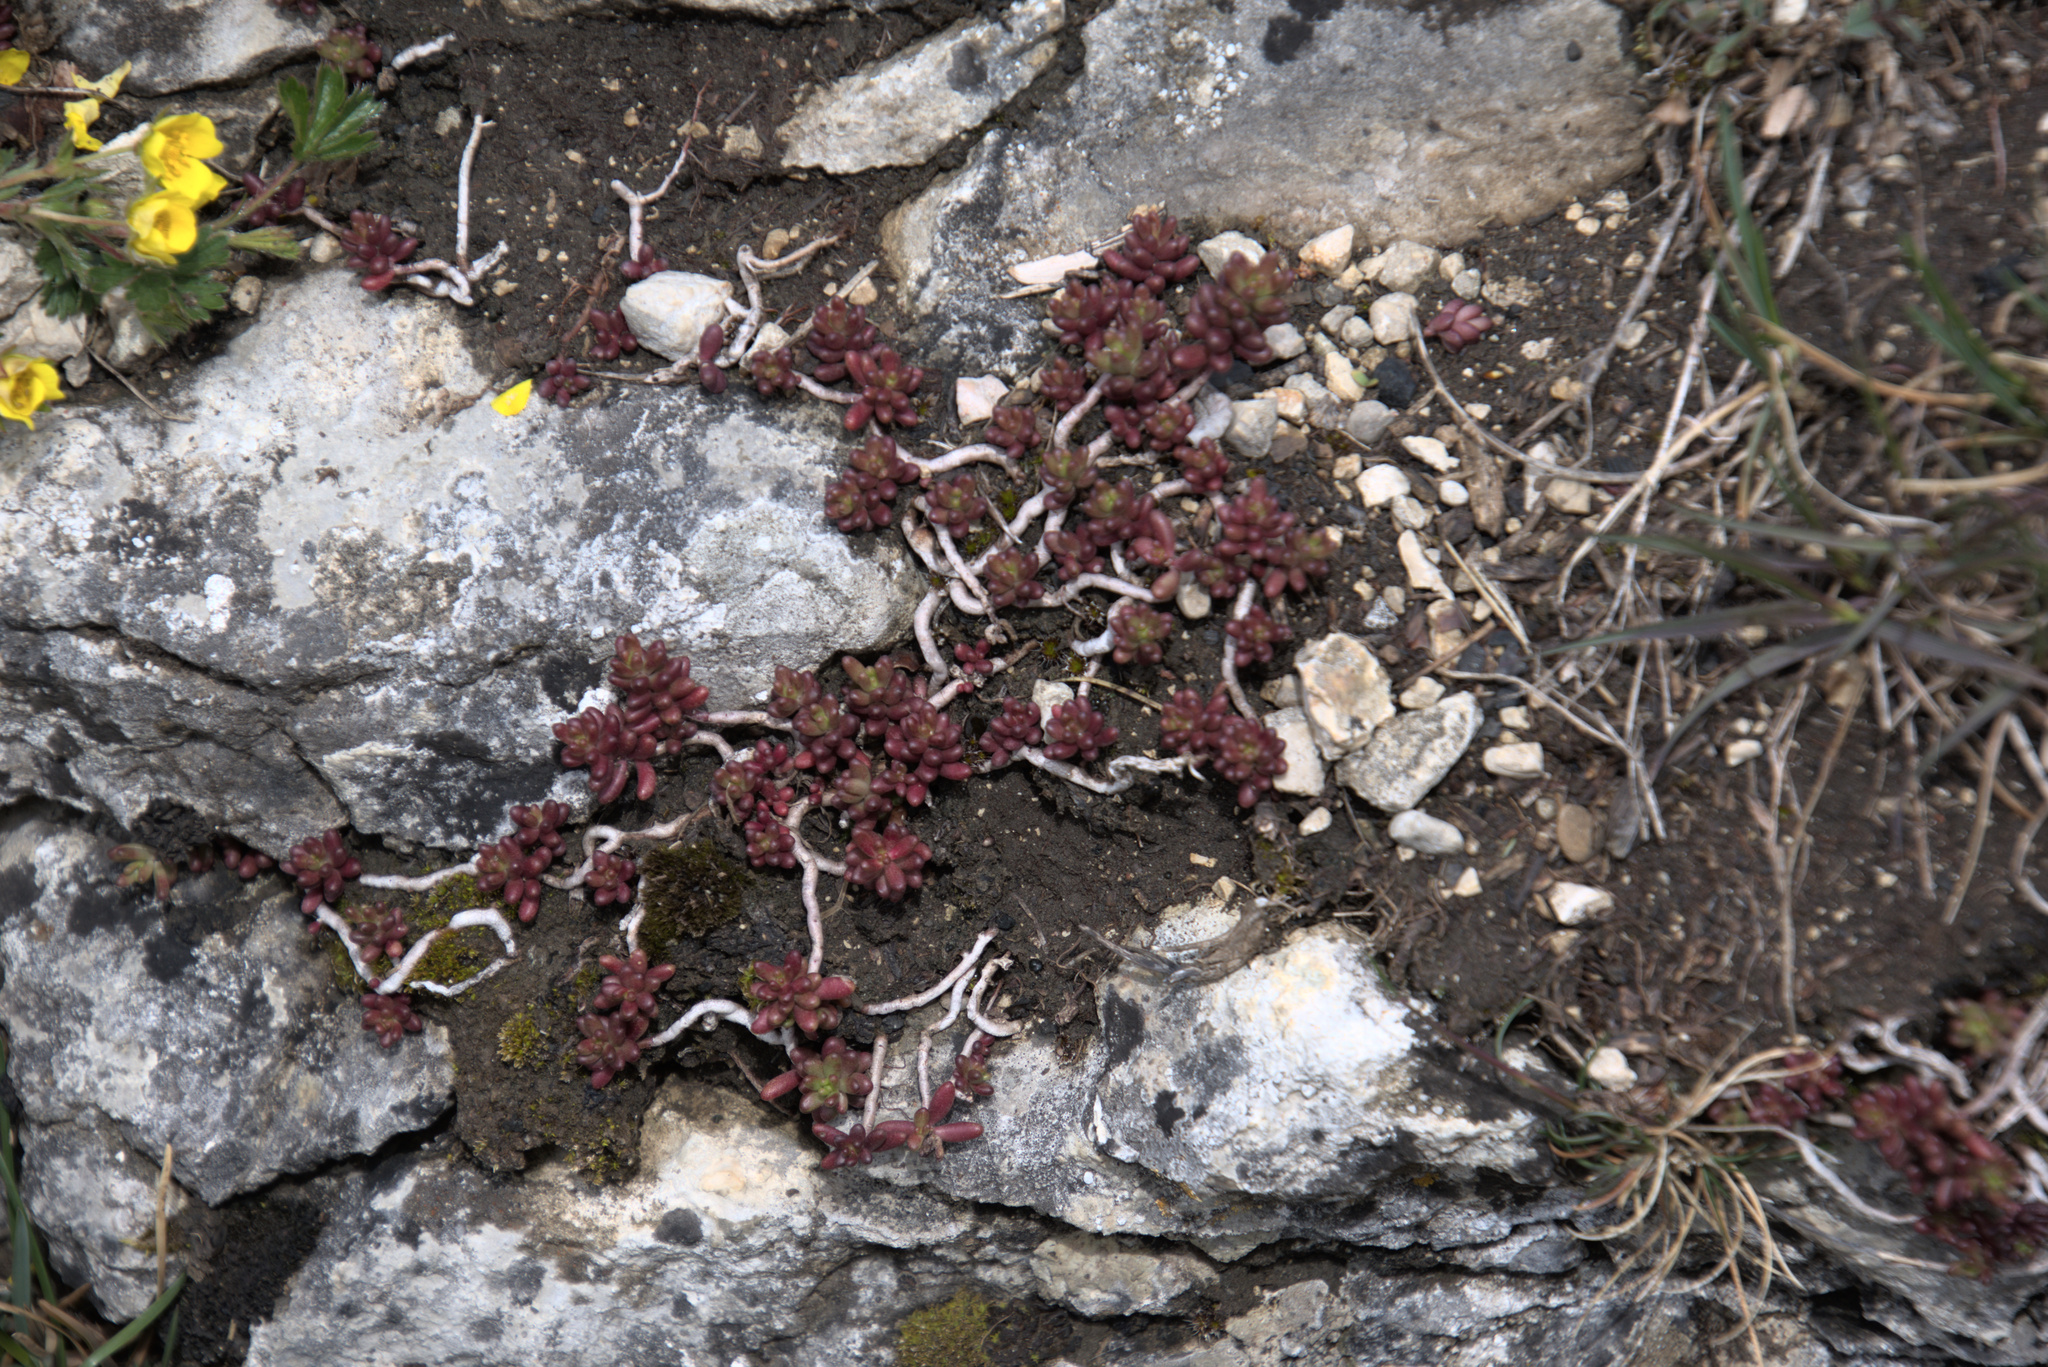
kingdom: Plantae
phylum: Tracheophyta
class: Magnoliopsida
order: Saxifragales
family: Crassulaceae
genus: Sedum
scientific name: Sedum album
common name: White stonecrop
